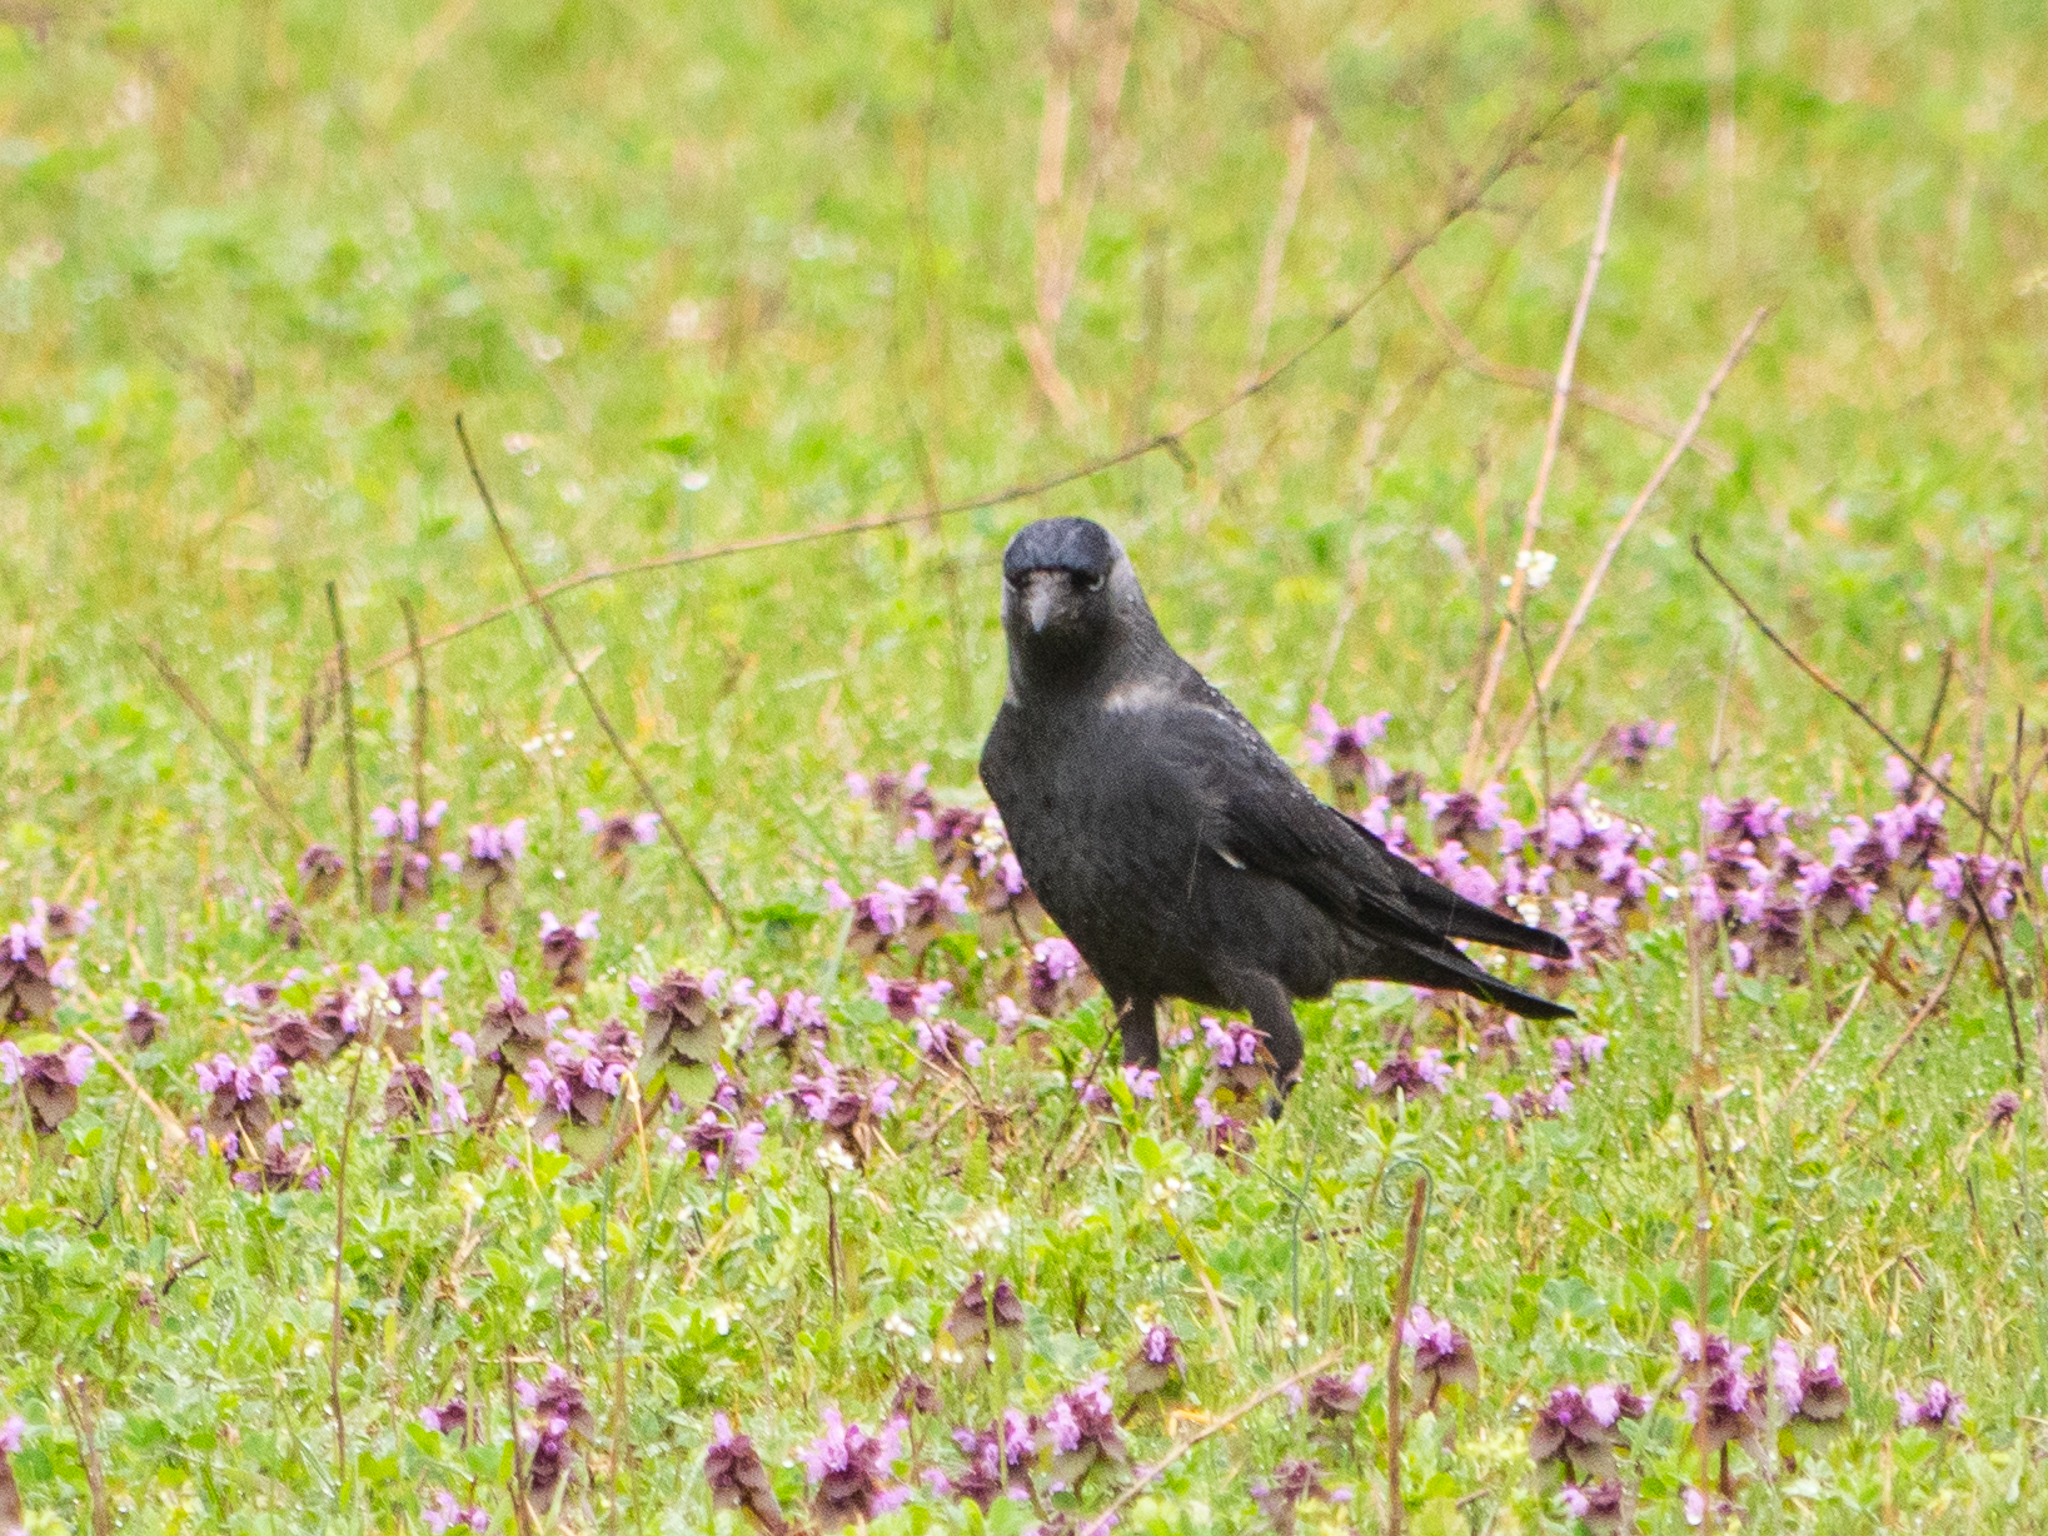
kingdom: Animalia
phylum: Chordata
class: Aves
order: Passeriformes
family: Corvidae
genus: Coloeus
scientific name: Coloeus monedula
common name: Western jackdaw
